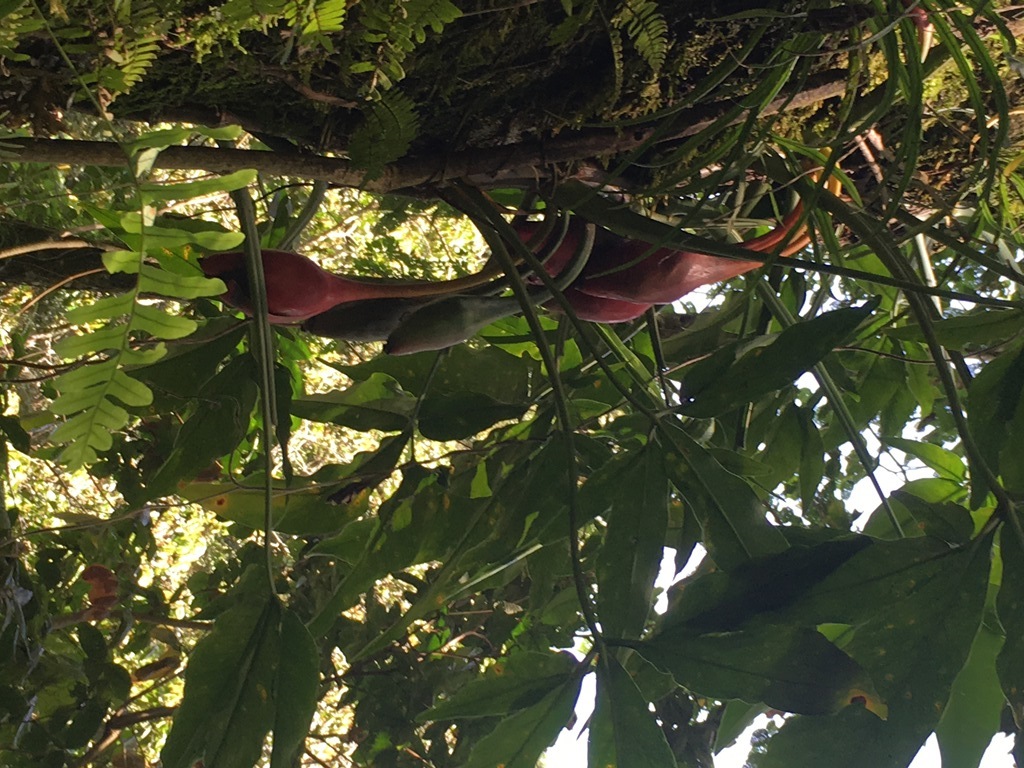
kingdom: Plantae
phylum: Tracheophyta
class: Liliopsida
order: Alismatales
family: Araceae
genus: Syngonium
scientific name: Syngonium macrophyllum
